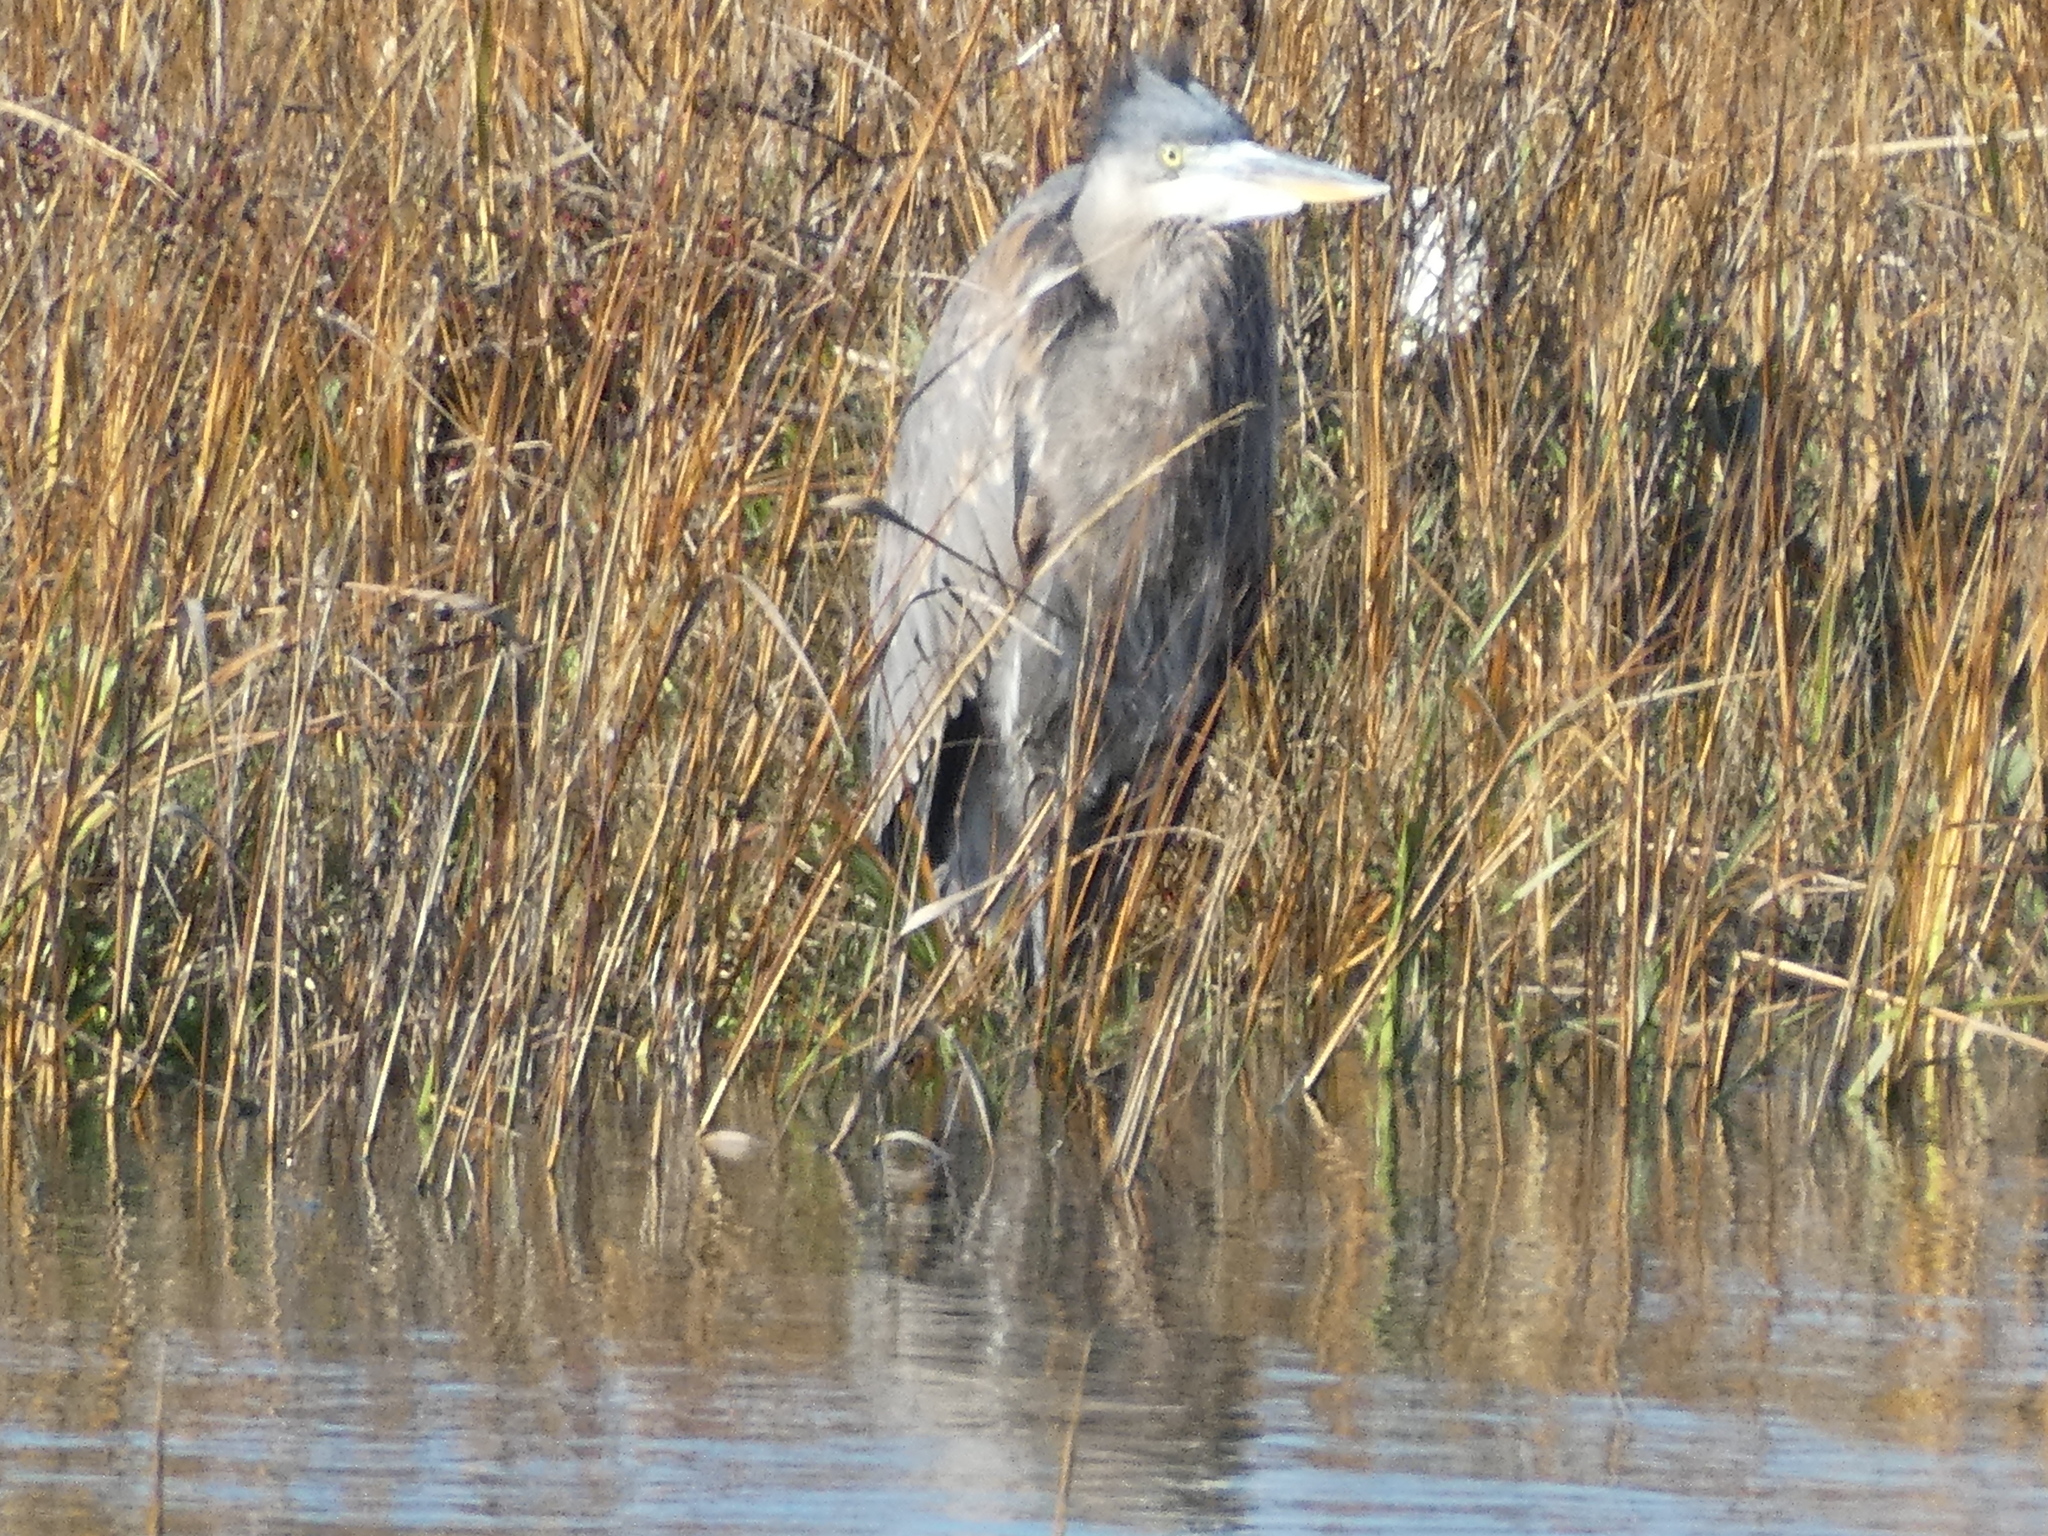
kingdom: Animalia
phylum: Chordata
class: Aves
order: Pelecaniformes
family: Ardeidae
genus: Ardea
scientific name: Ardea herodias
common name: Great blue heron
